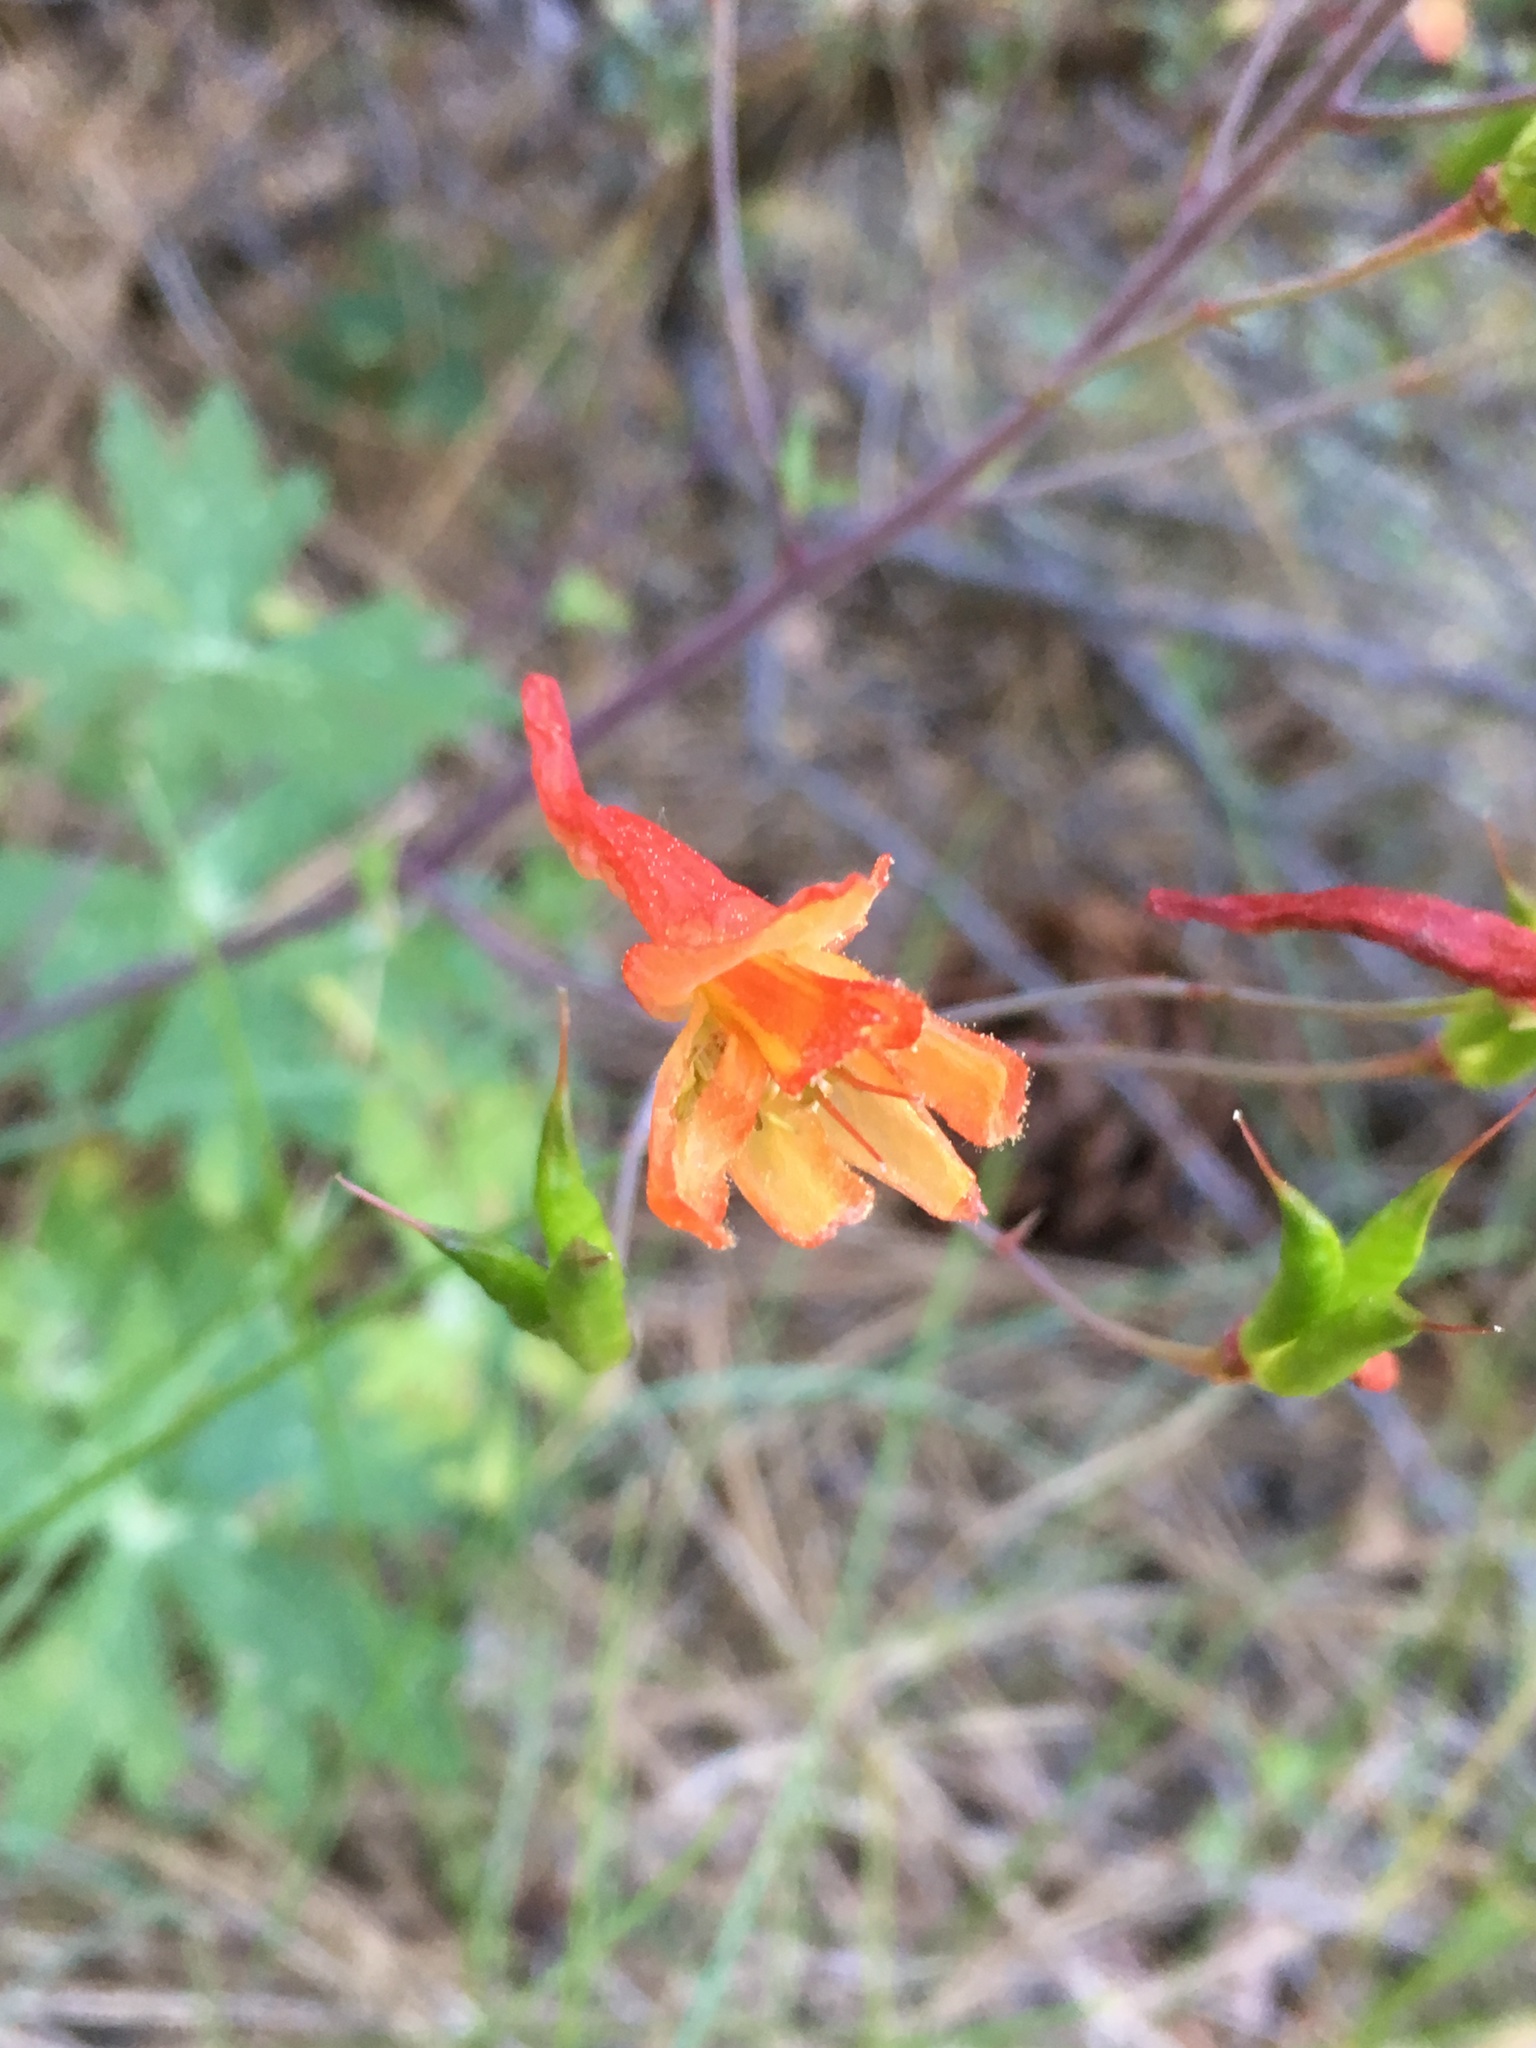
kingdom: Plantae
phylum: Tracheophyta
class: Magnoliopsida
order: Ranunculales
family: Ranunculaceae
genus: Delphinium
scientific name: Delphinium nudicaule
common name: Red larkspur
